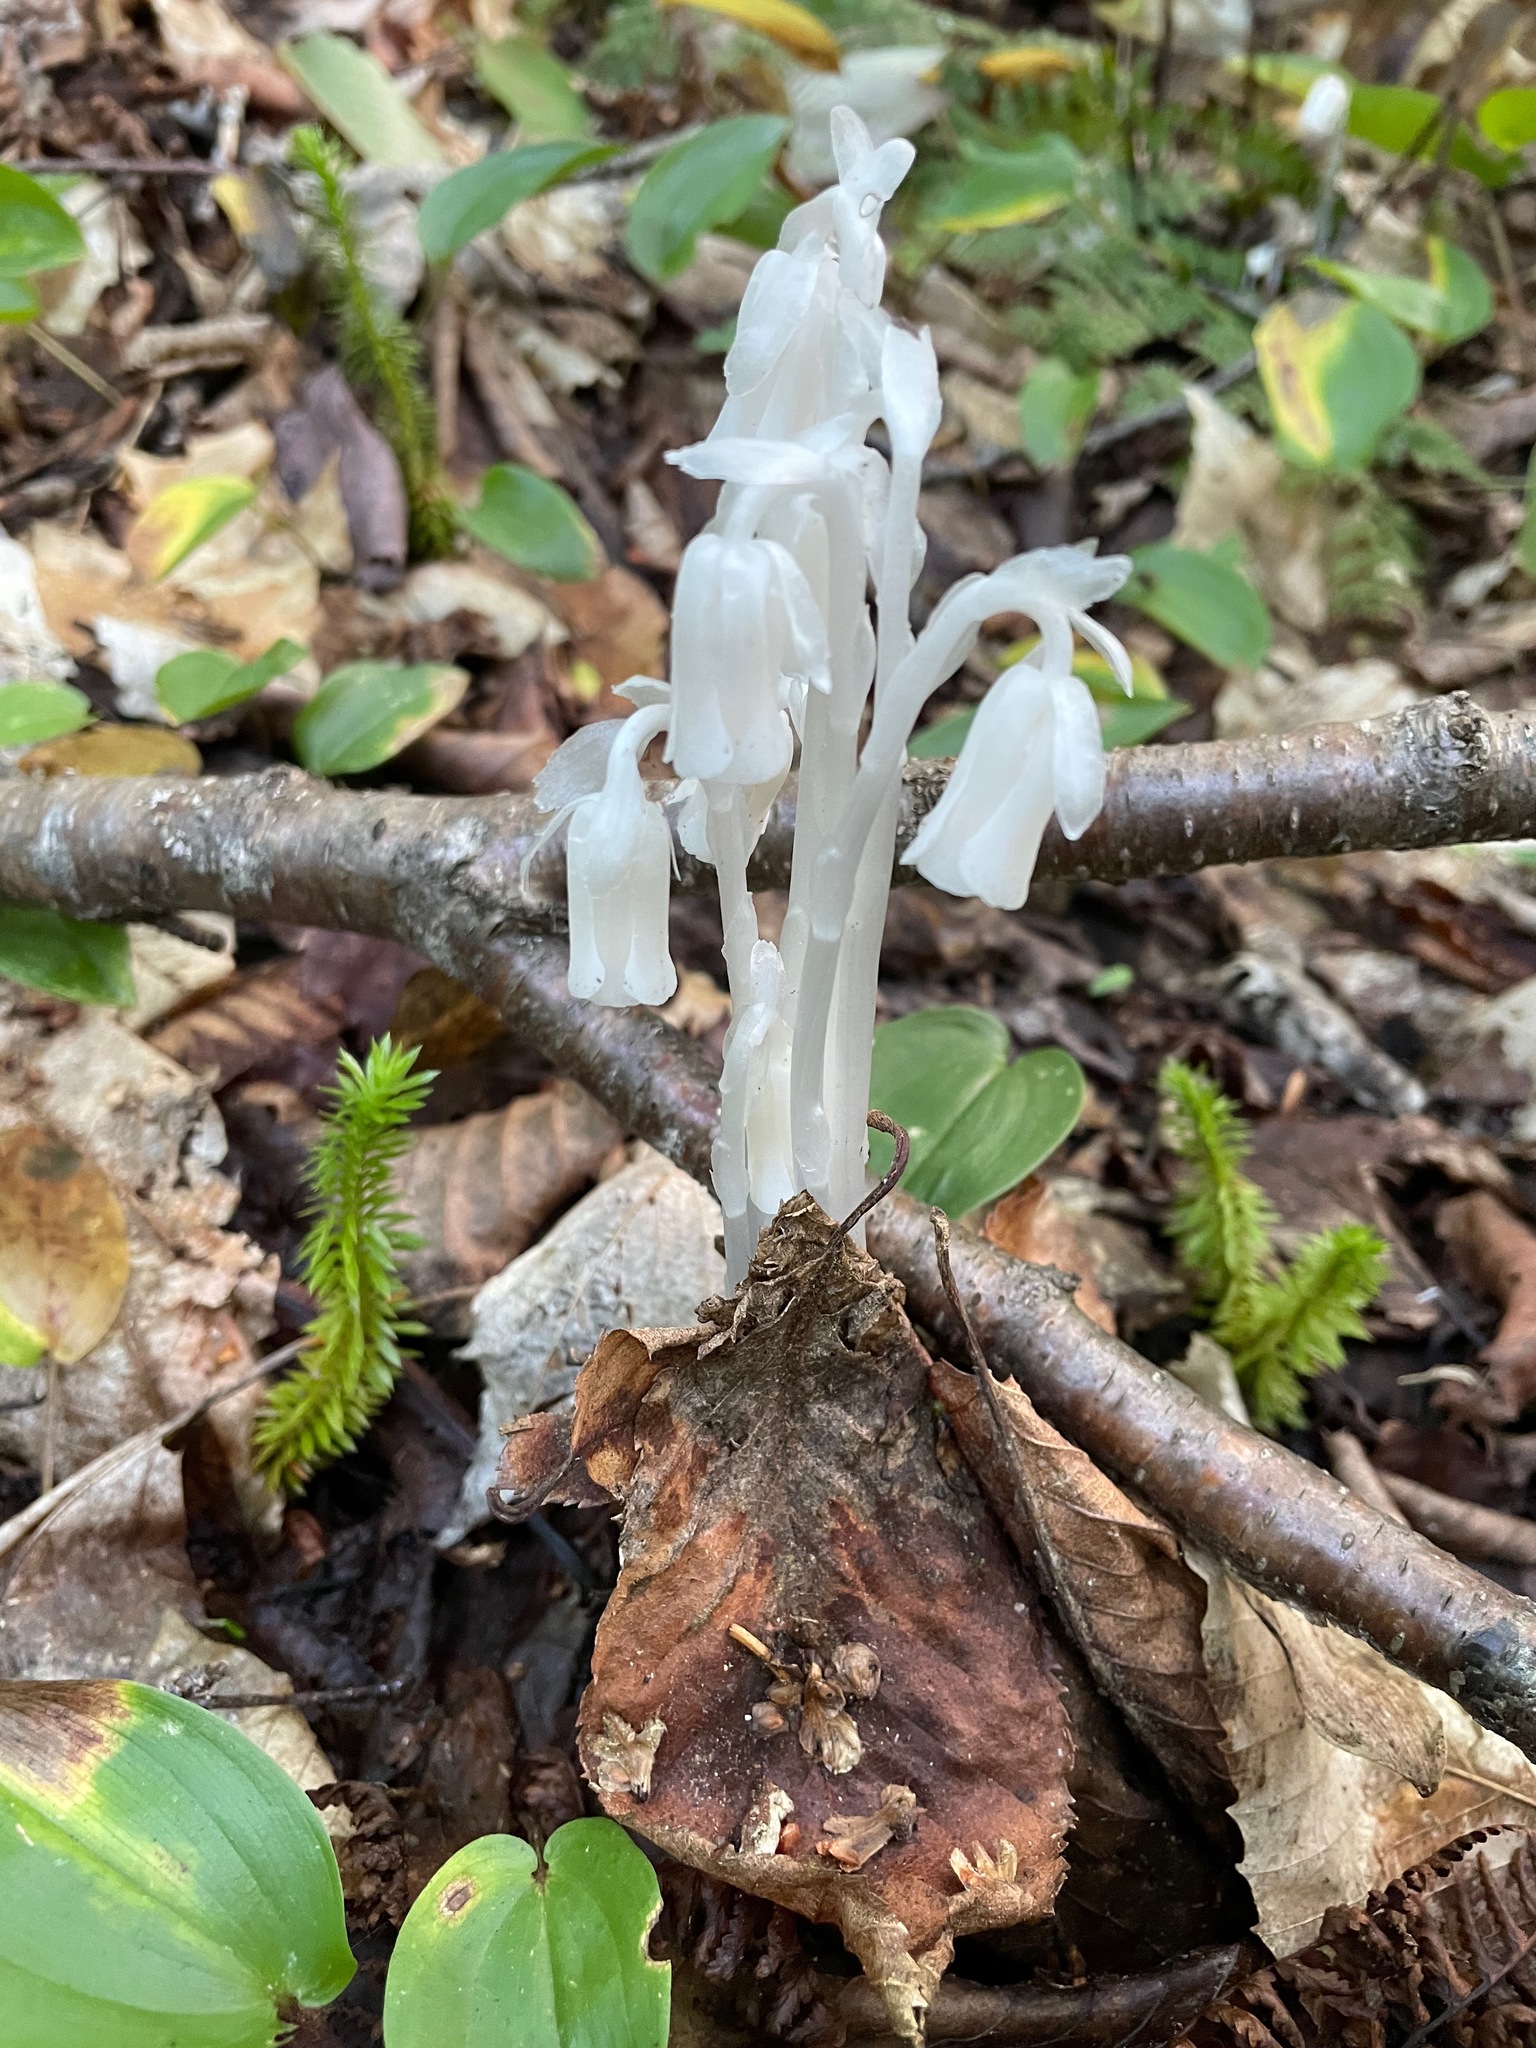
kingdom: Plantae
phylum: Tracheophyta
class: Magnoliopsida
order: Ericales
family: Ericaceae
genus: Monotropa
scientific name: Monotropa uniflora
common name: Convulsion root
